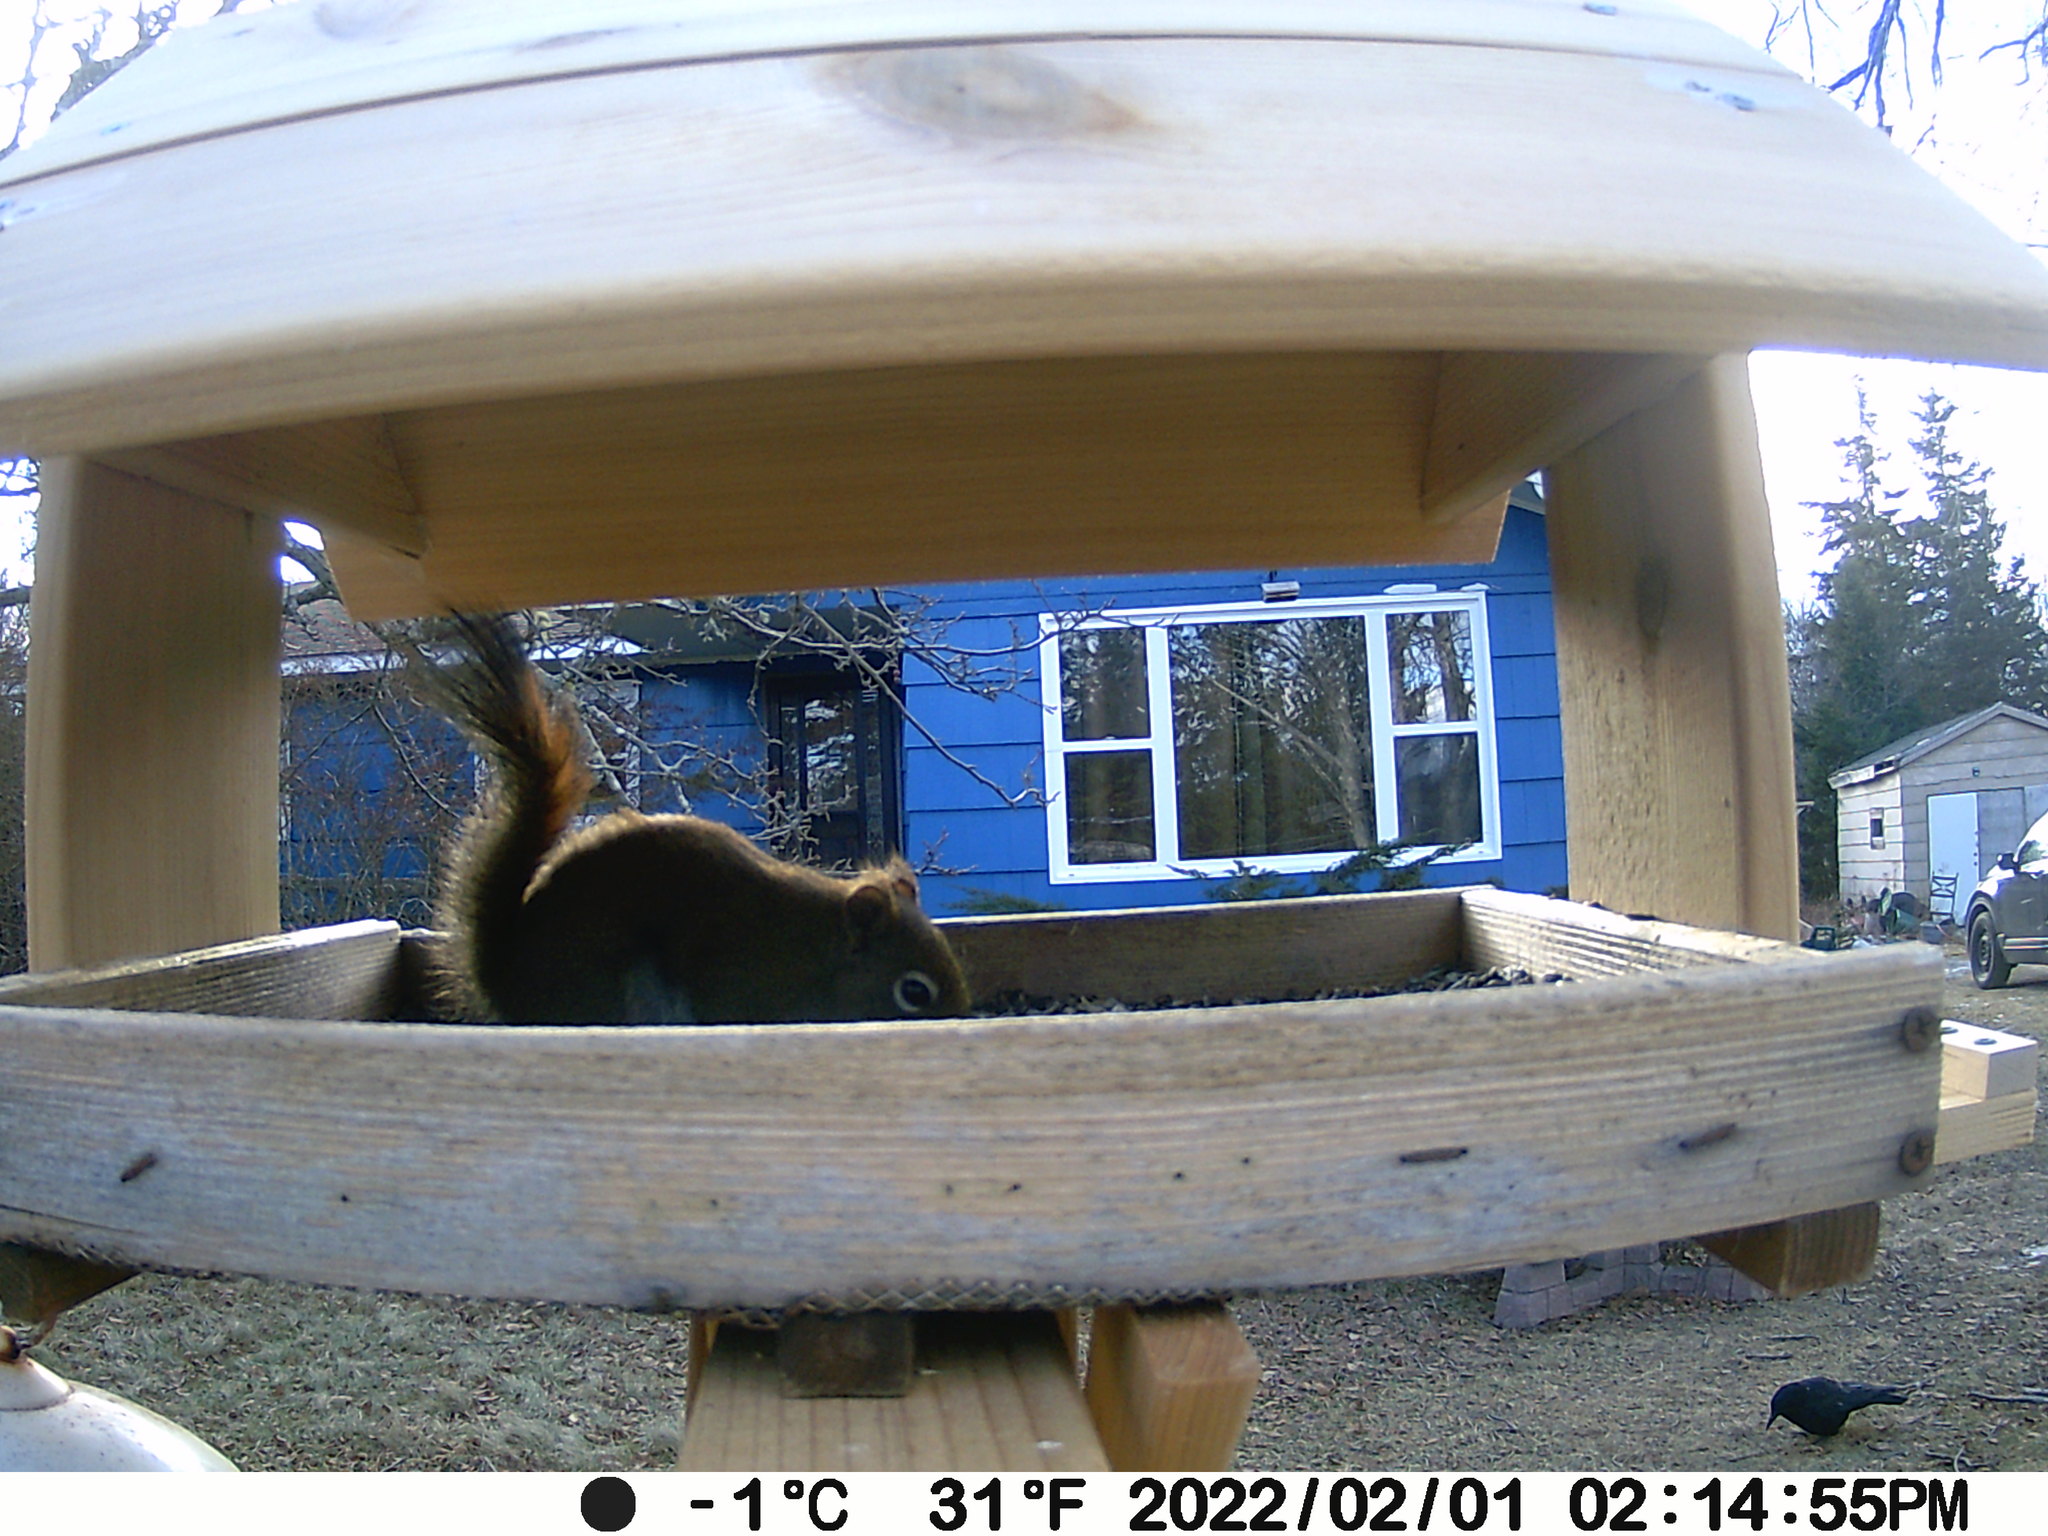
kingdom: Animalia
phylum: Chordata
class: Aves
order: Passeriformes
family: Corvidae
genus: Corvus
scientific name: Corvus brachyrhynchos
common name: American crow
